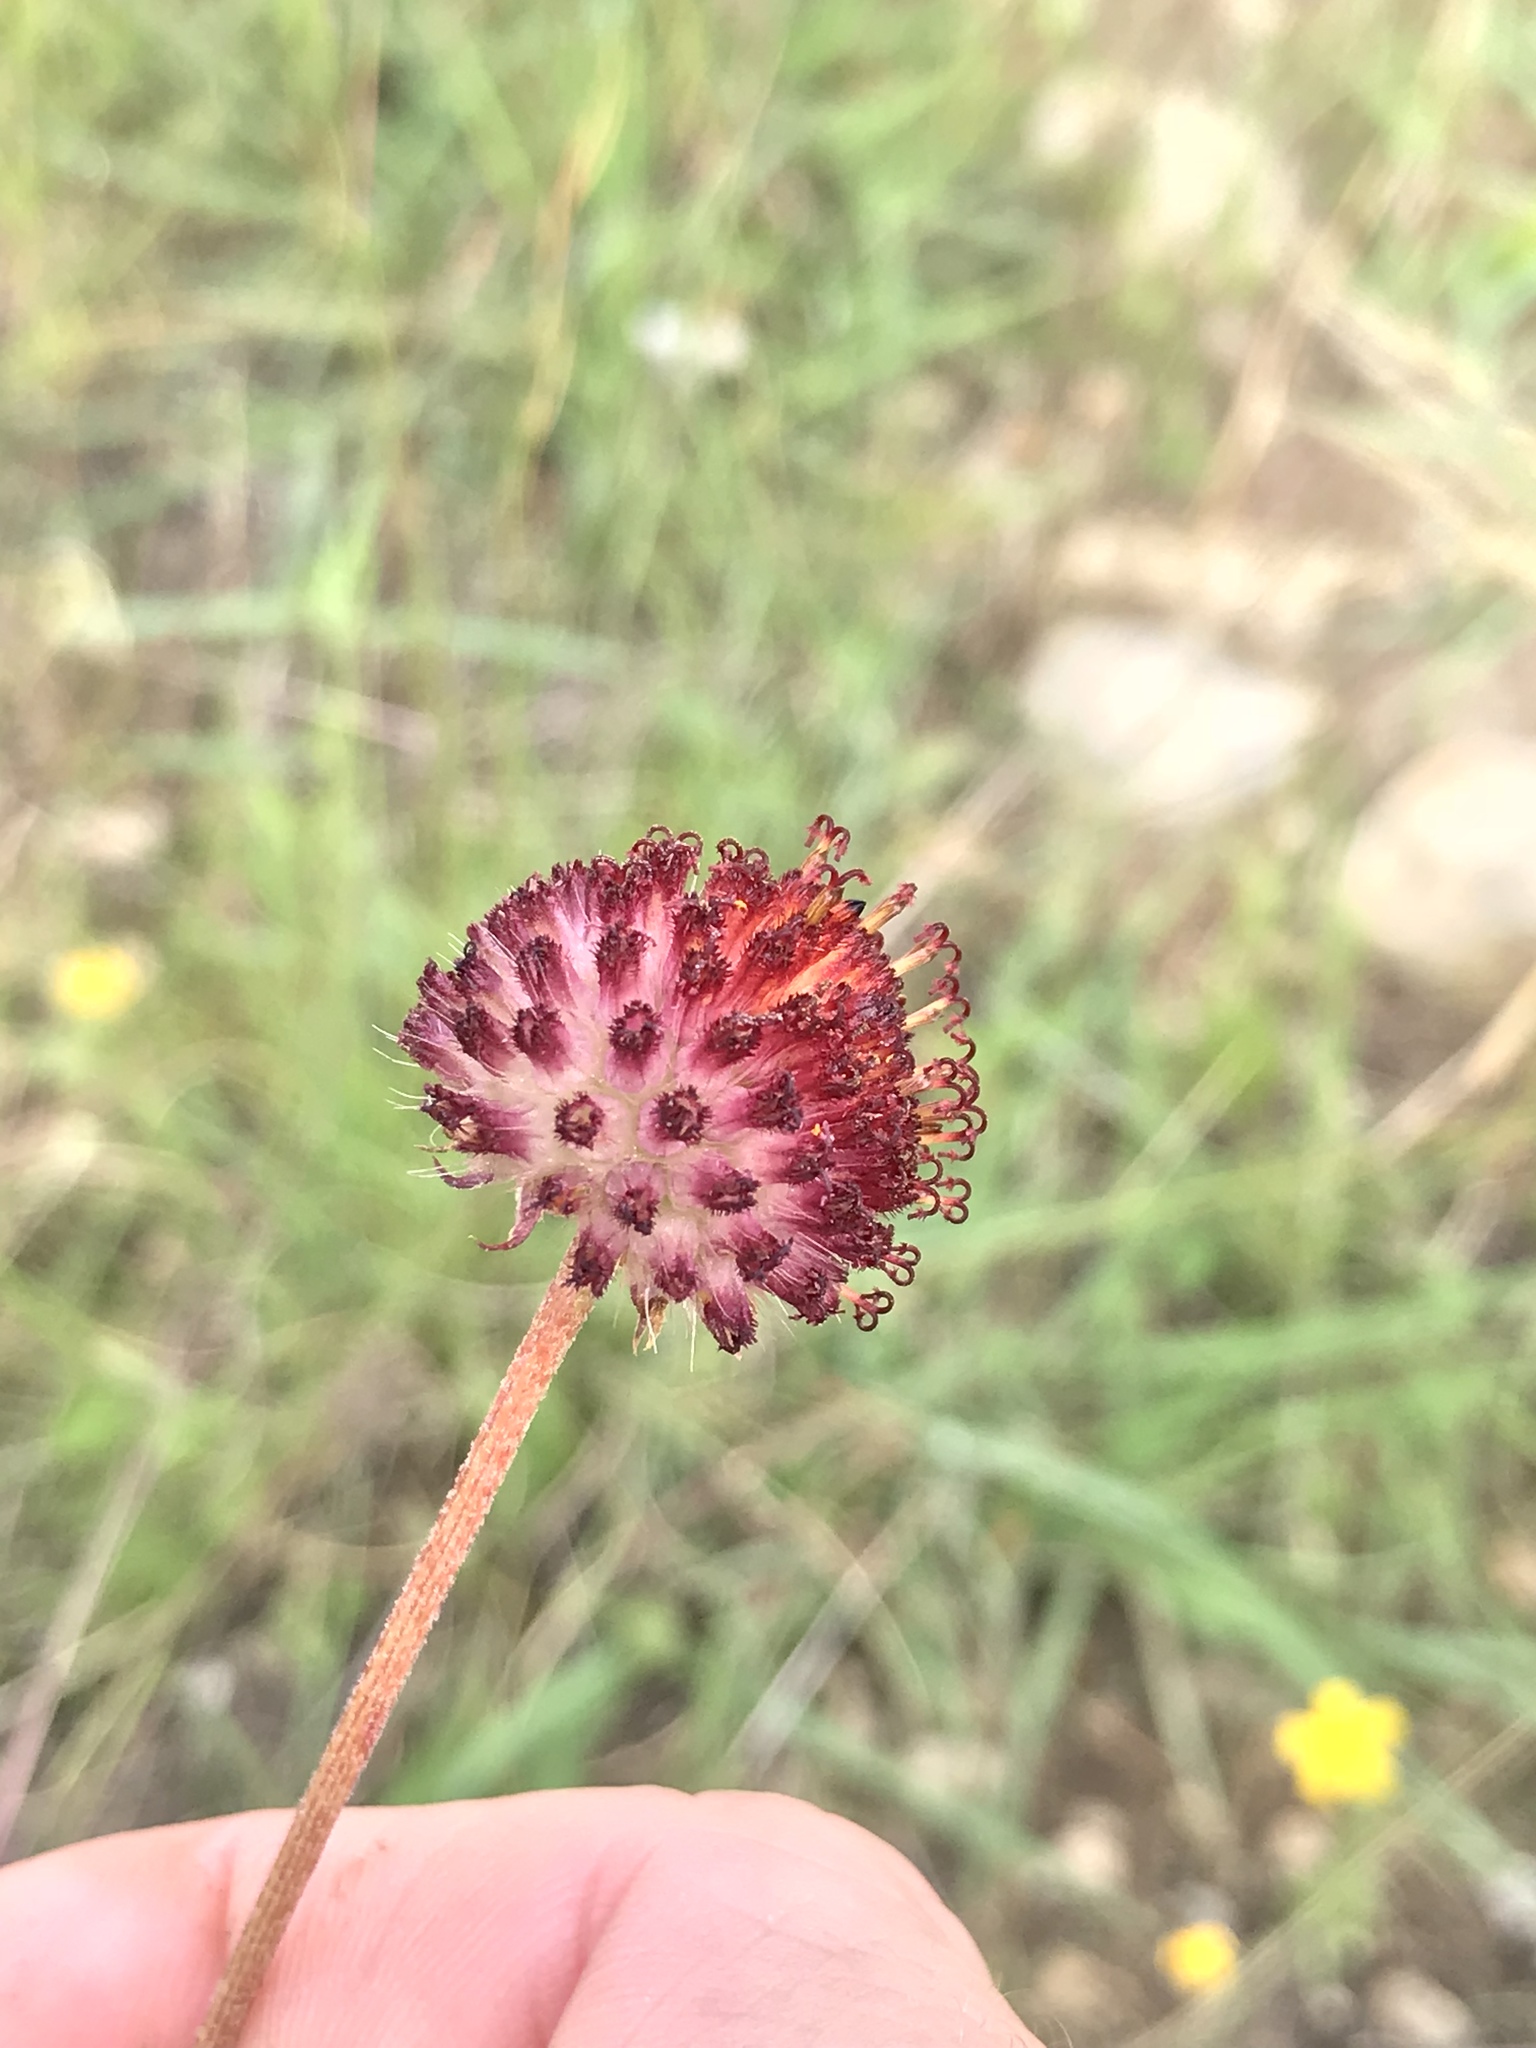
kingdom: Plantae
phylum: Tracheophyta
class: Magnoliopsida
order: Asterales
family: Asteraceae
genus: Gaillardia
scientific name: Gaillardia suavis
